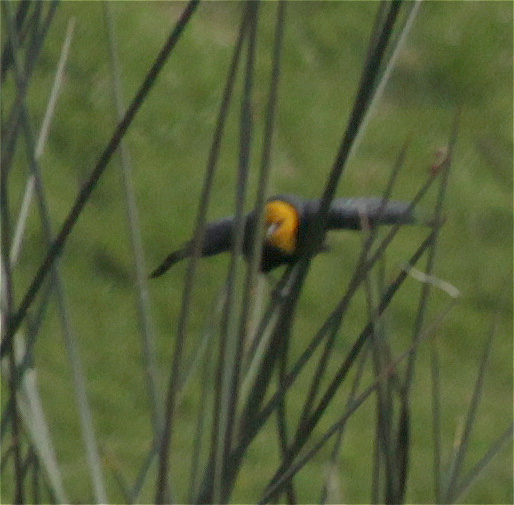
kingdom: Animalia
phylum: Chordata
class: Aves
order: Passeriformes
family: Icteridae
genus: Chrysomus
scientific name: Chrysomus icterocephalus
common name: Yellow-hooded blackbird
